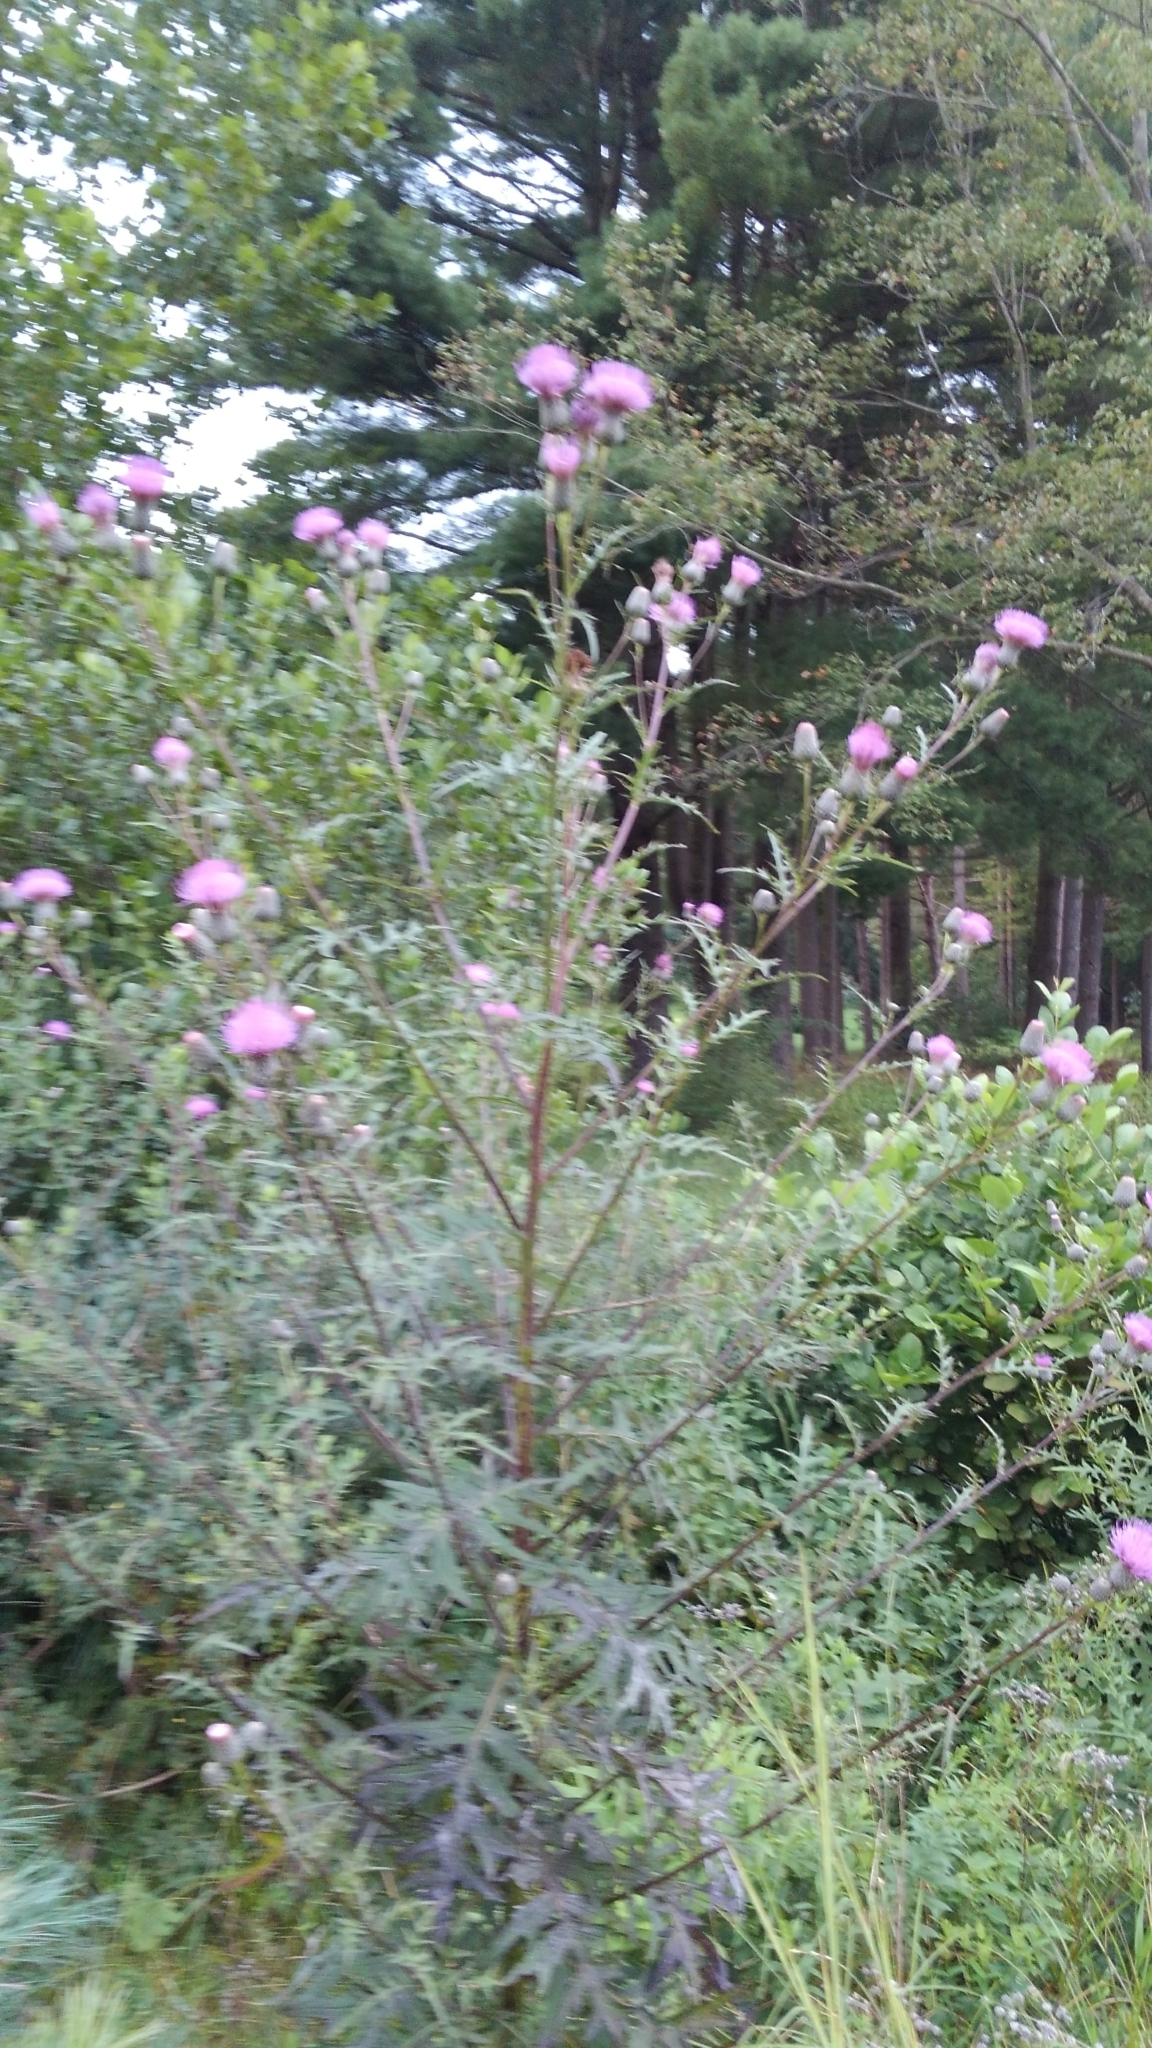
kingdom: Plantae
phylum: Tracheophyta
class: Magnoliopsida
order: Asterales
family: Asteraceae
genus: Cirsium
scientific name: Cirsium muticum
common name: Dunce-nettle
